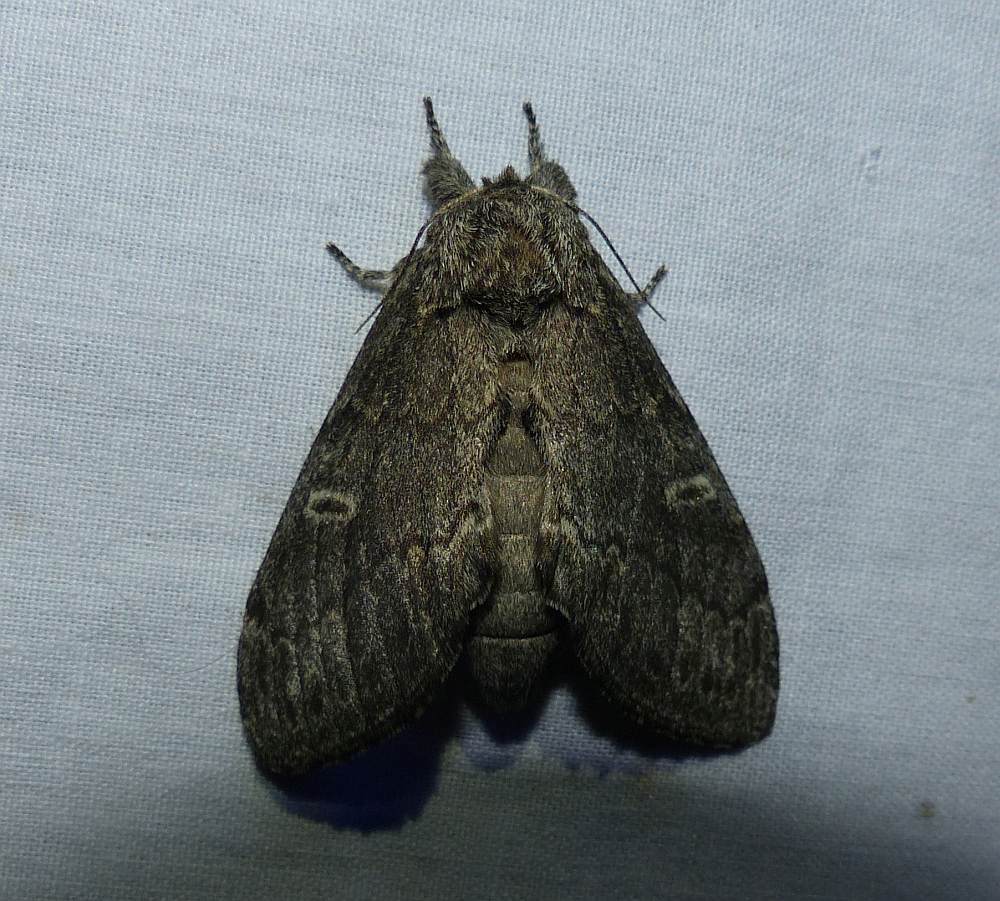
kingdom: Animalia
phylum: Arthropoda
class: Insecta
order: Lepidoptera
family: Notodontidae
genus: Notodonta
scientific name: Notodonta torva
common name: Large dark prominent
